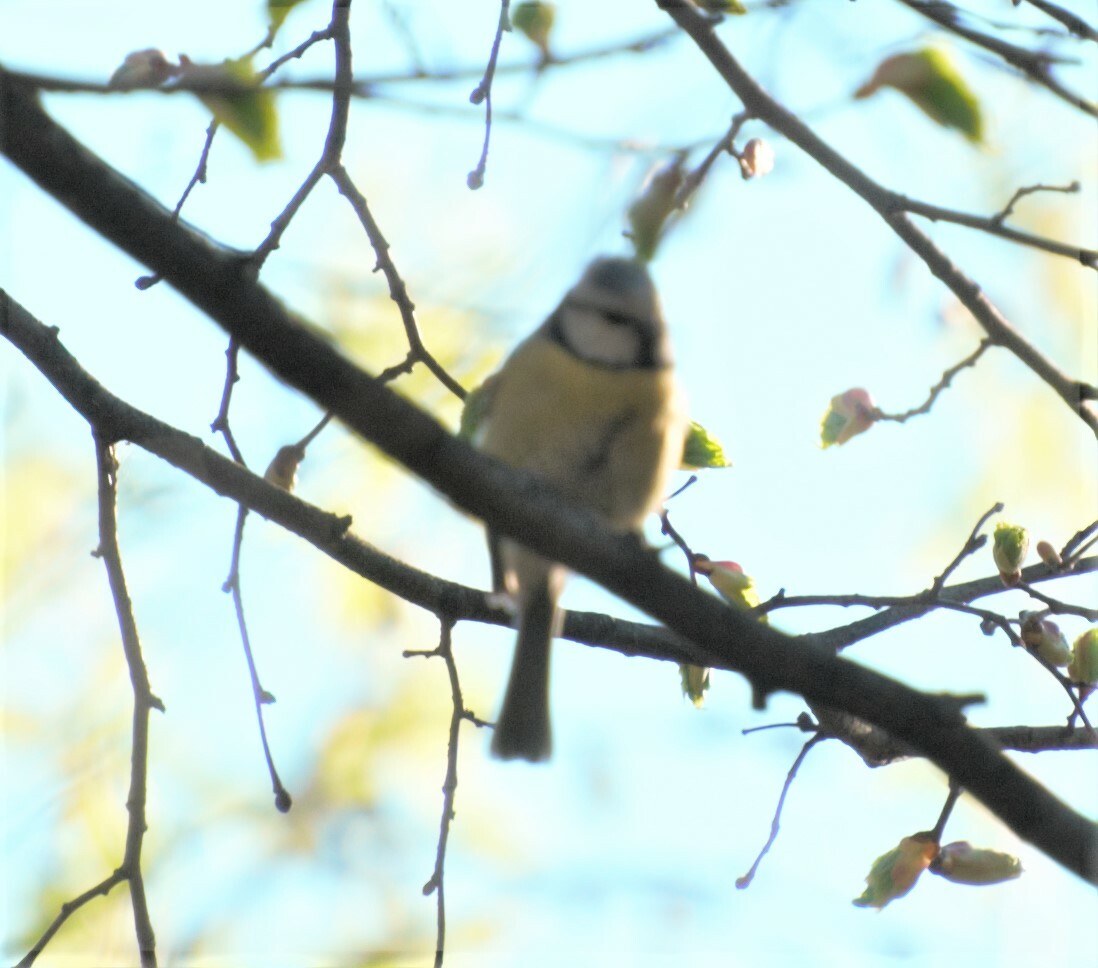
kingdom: Animalia
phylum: Chordata
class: Aves
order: Passeriformes
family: Paridae
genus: Cyanistes
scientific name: Cyanistes caeruleus
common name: Eurasian blue tit
